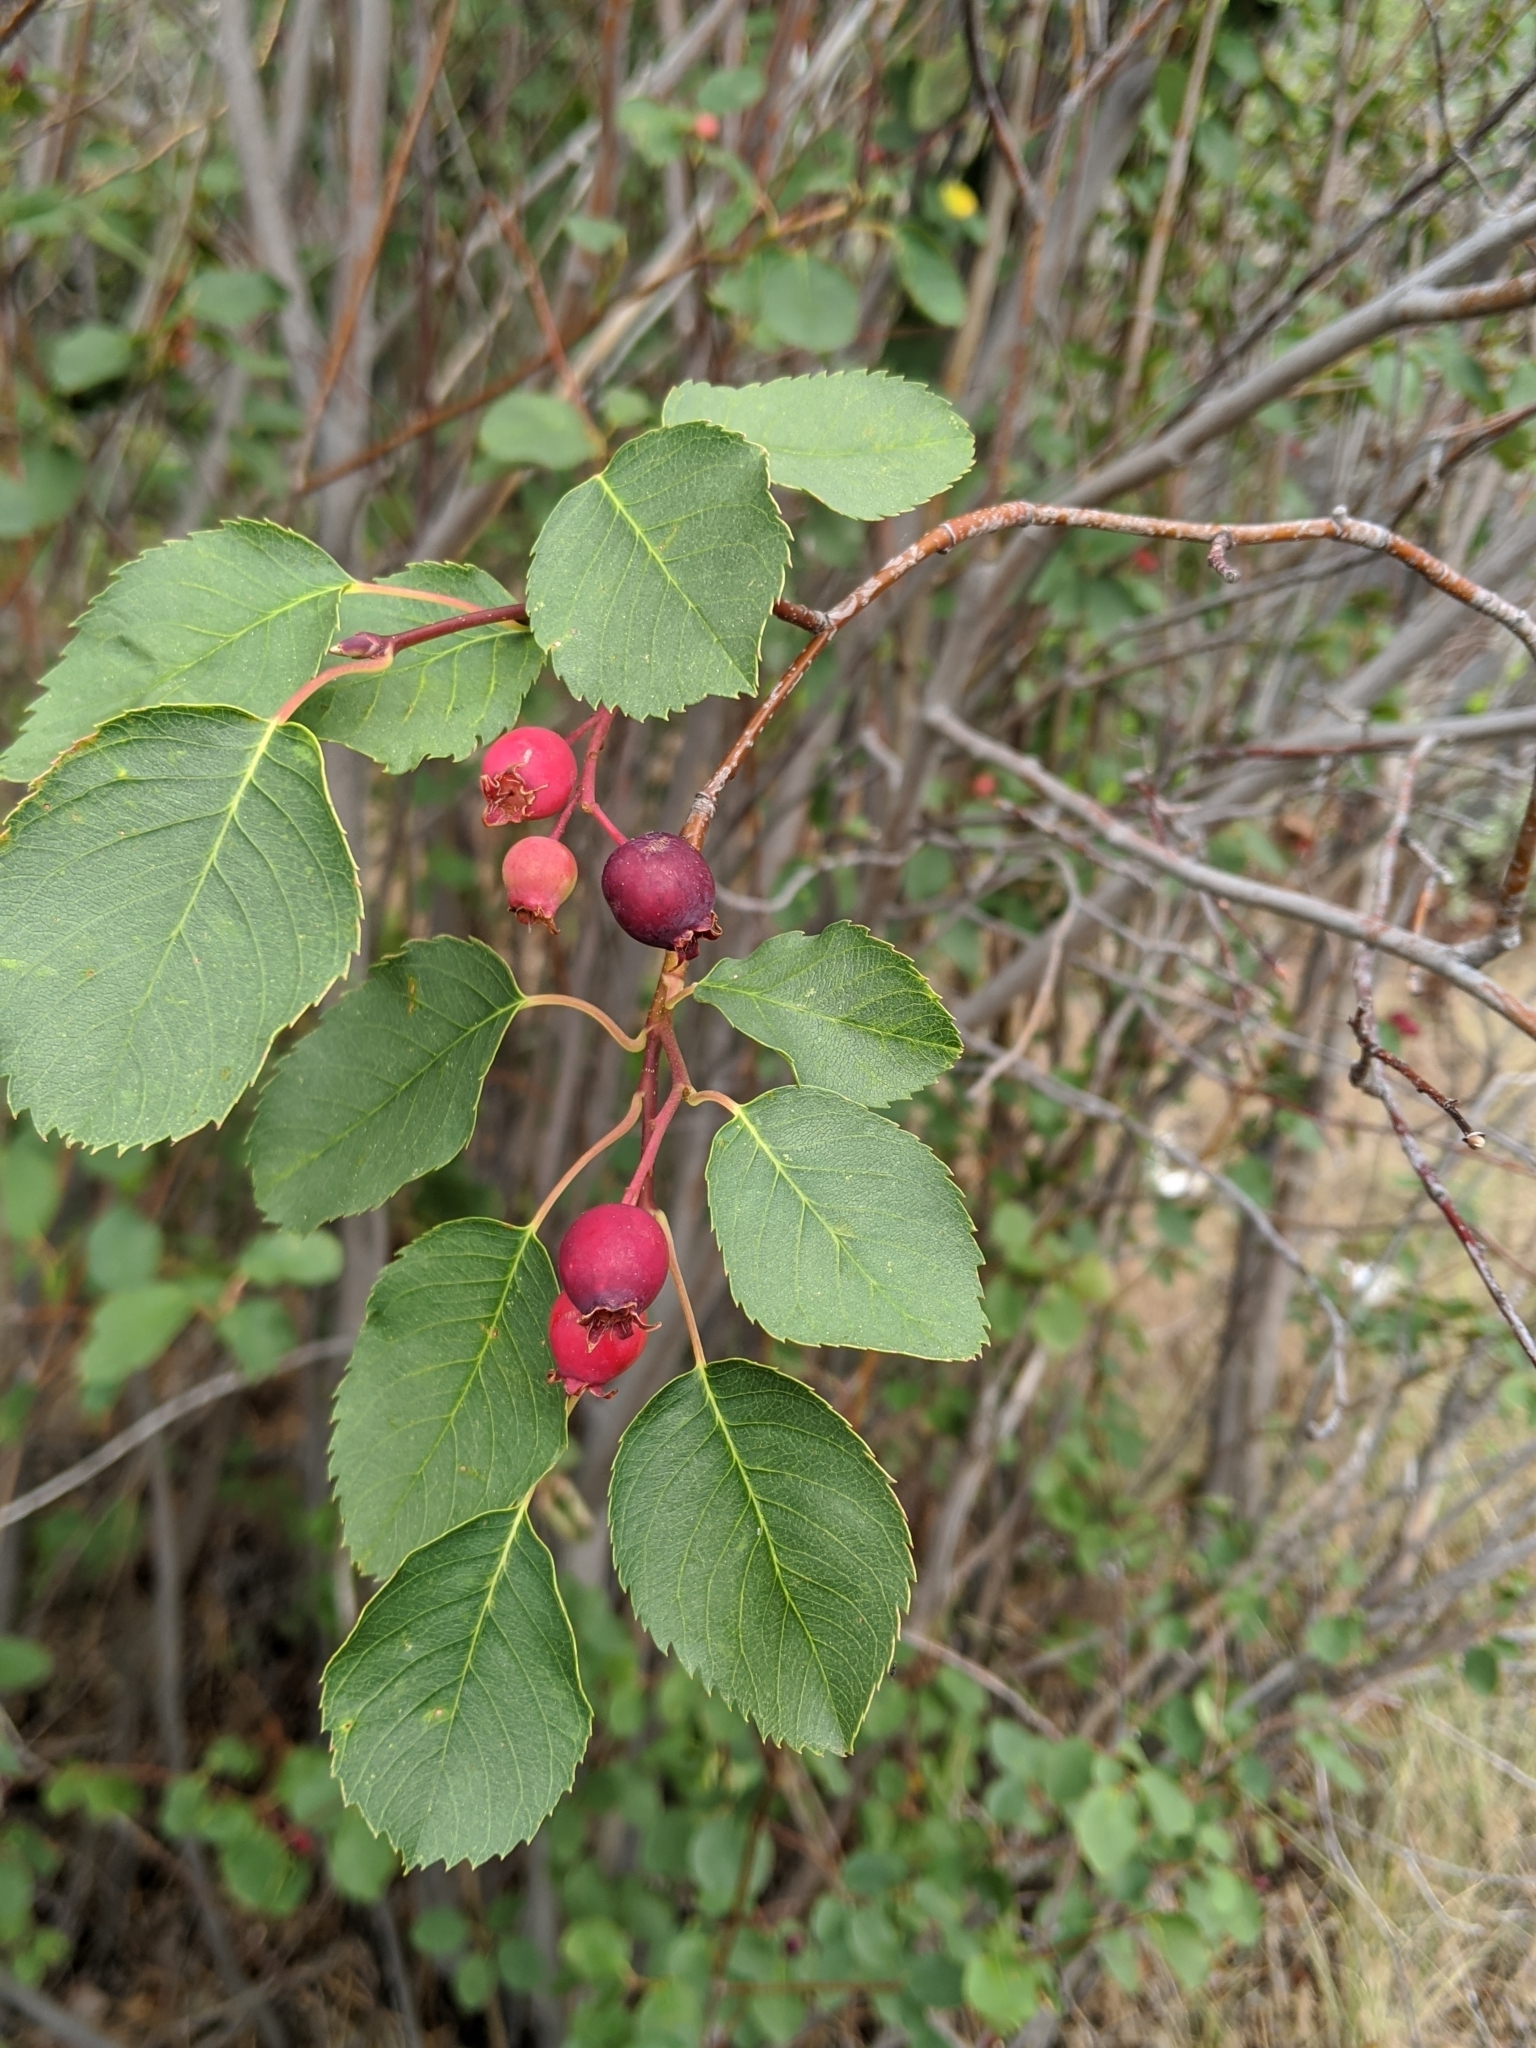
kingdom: Plantae
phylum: Tracheophyta
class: Magnoliopsida
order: Rosales
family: Rosaceae
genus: Amelanchier
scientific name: Amelanchier alnifolia
